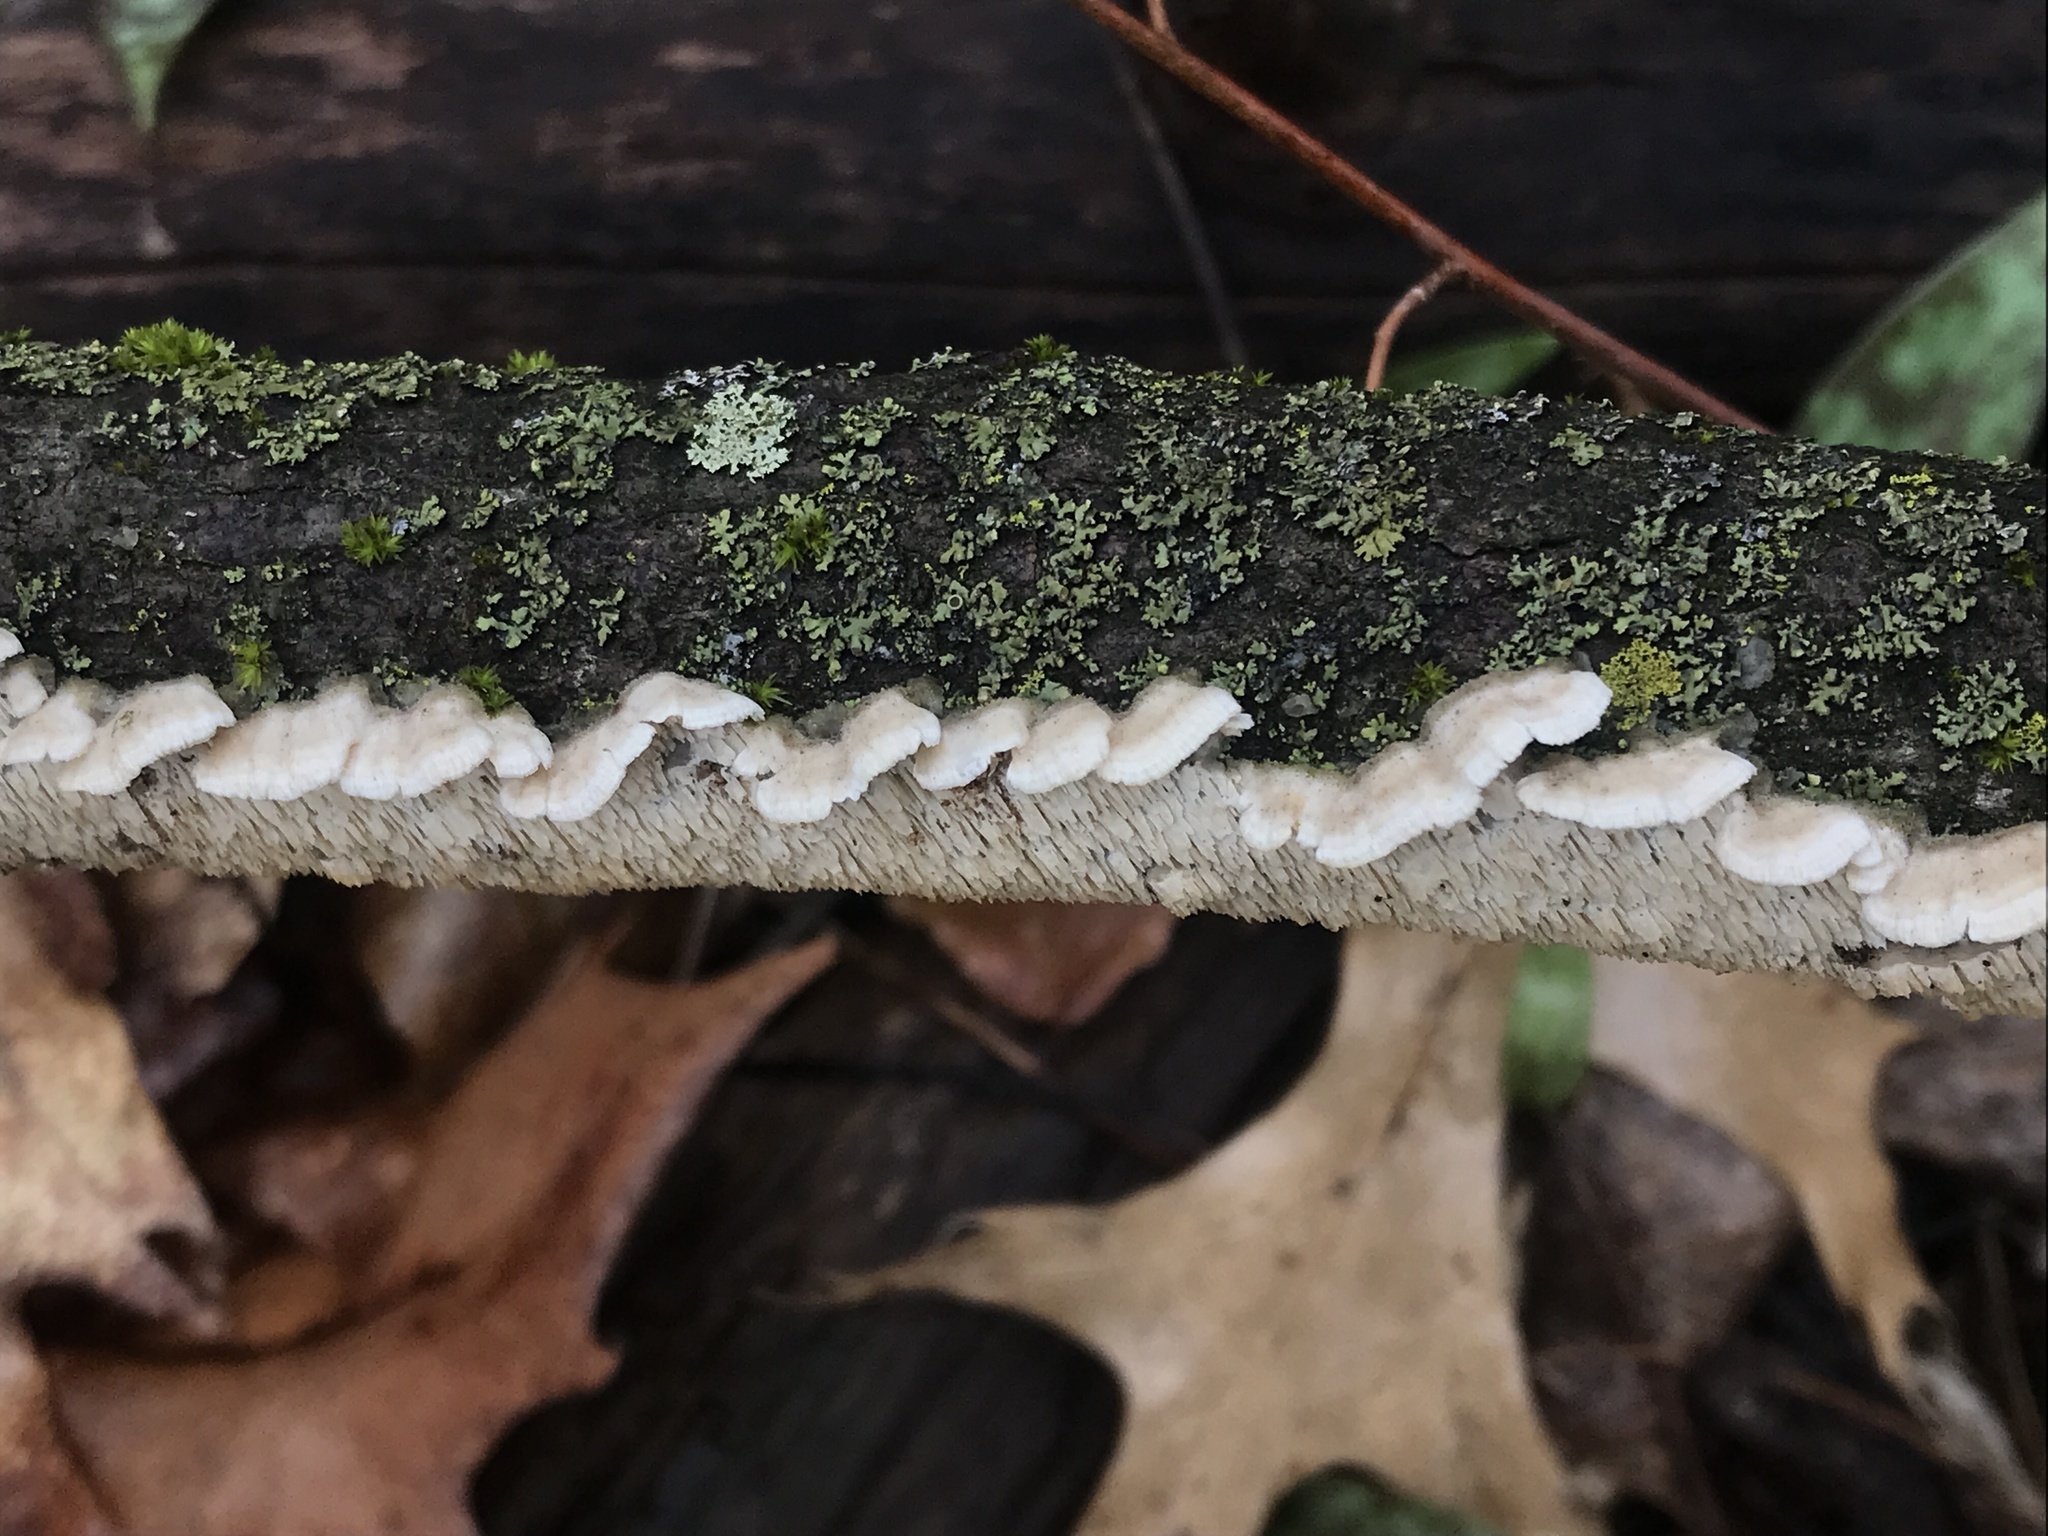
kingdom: Fungi
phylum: Basidiomycota
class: Agaricomycetes
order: Polyporales
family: Irpicaceae
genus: Irpex
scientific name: Irpex lacteus
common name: Milk-white toothed polypore
